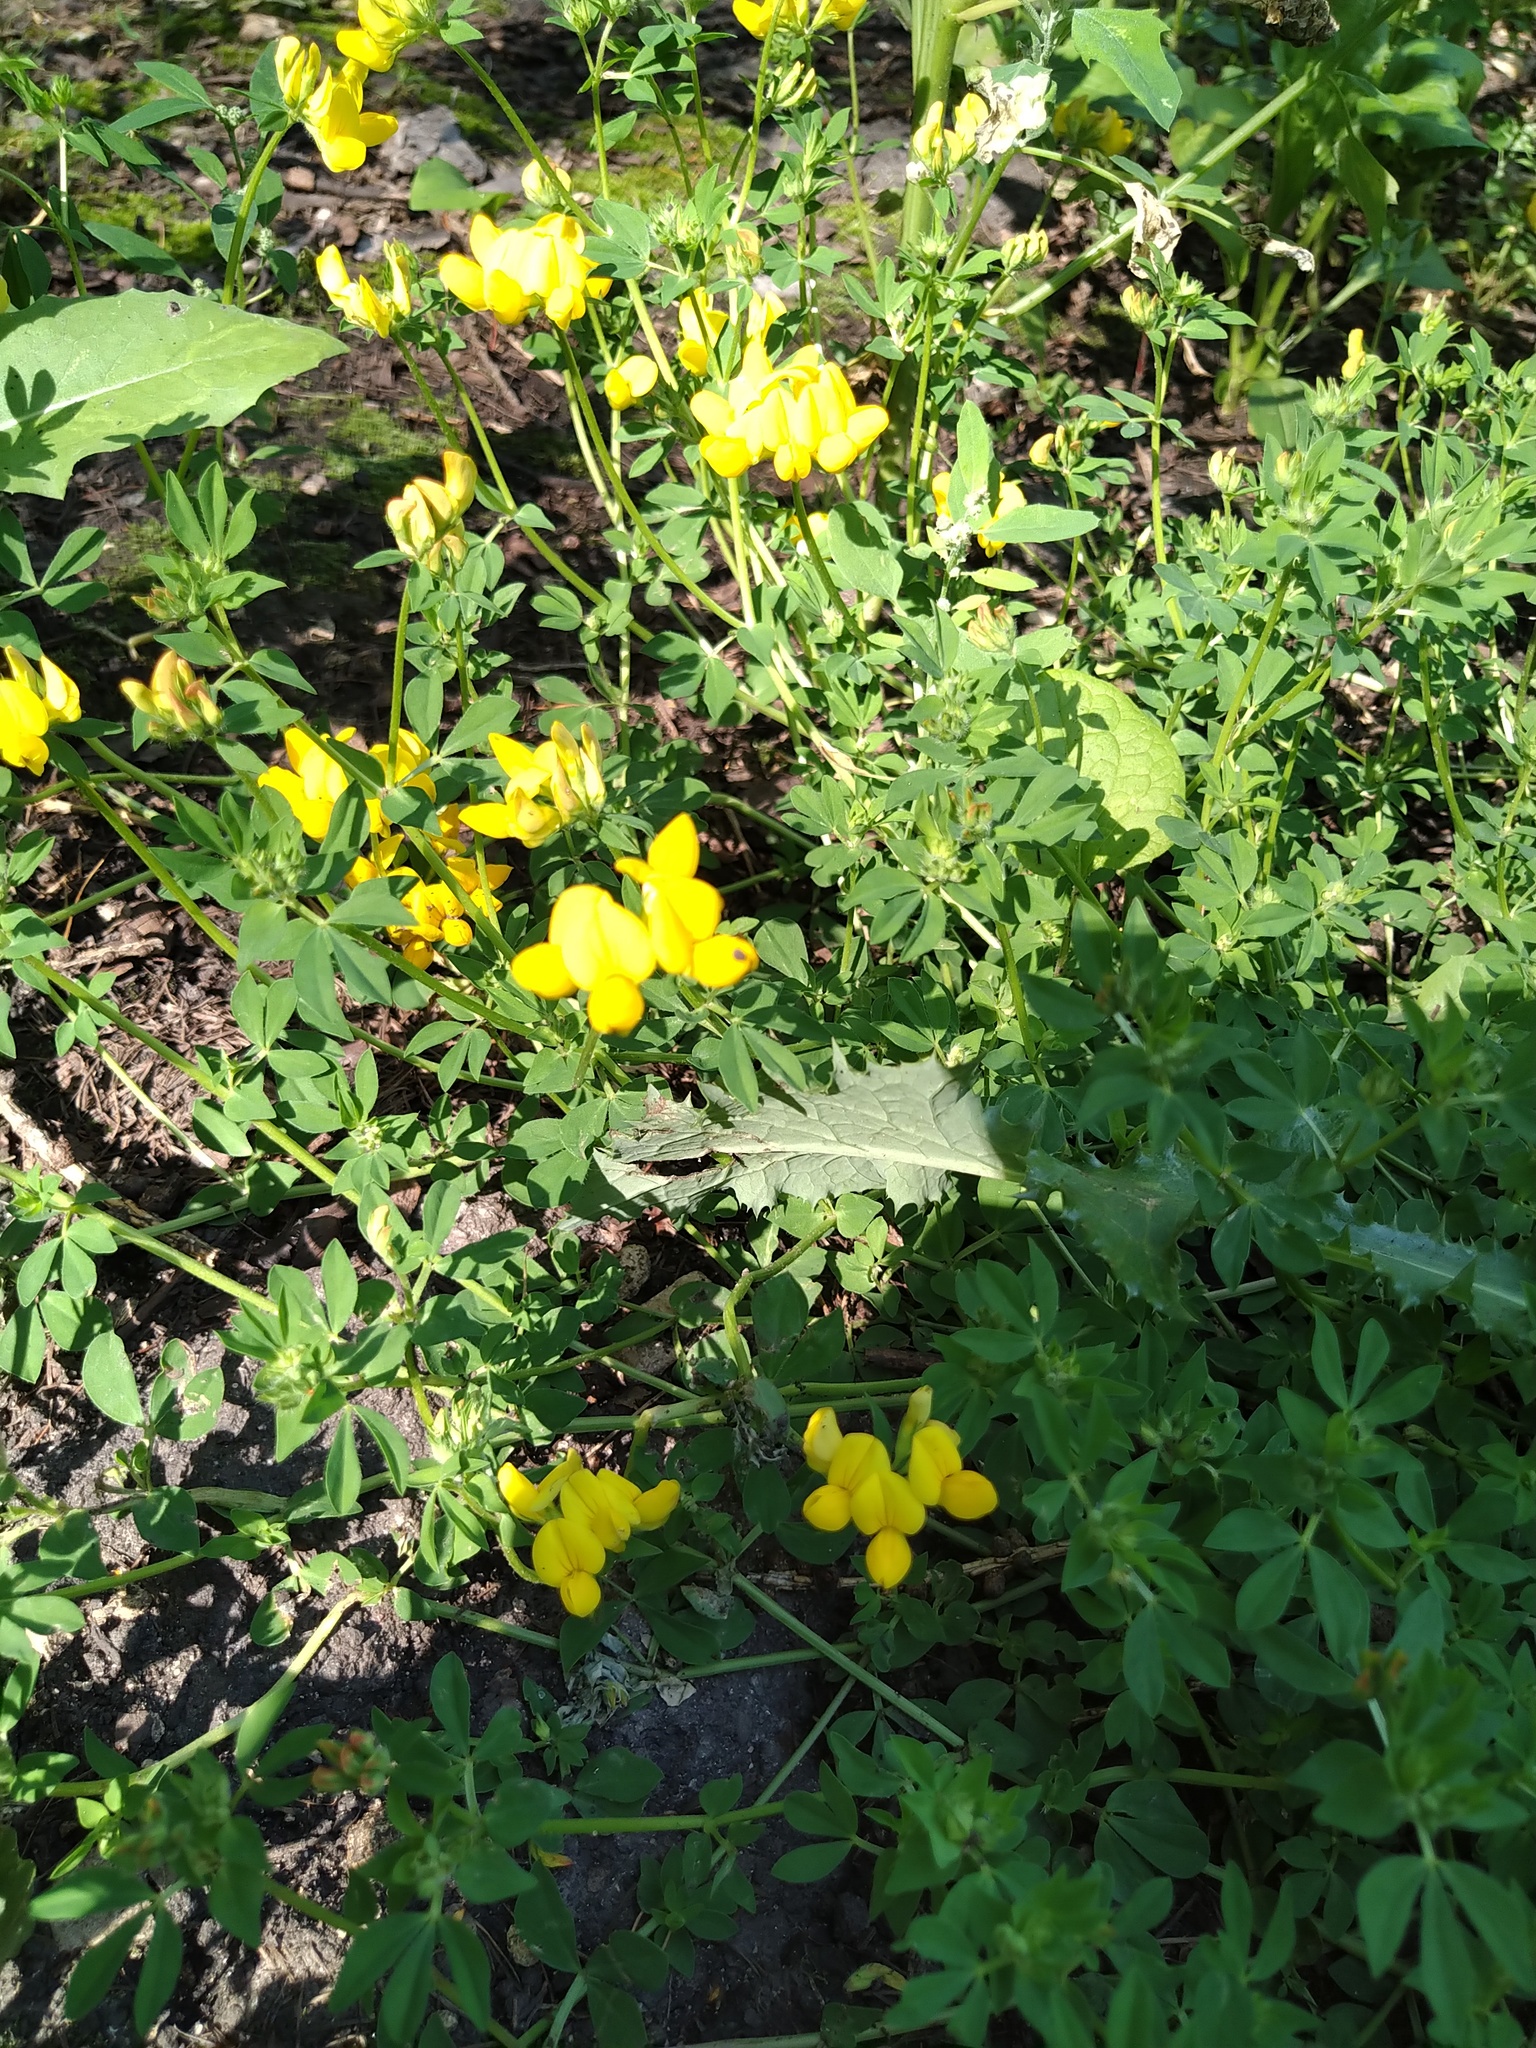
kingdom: Plantae
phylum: Tracheophyta
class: Magnoliopsida
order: Fabales
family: Fabaceae
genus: Lotus
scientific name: Lotus corniculatus
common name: Common bird's-foot-trefoil
